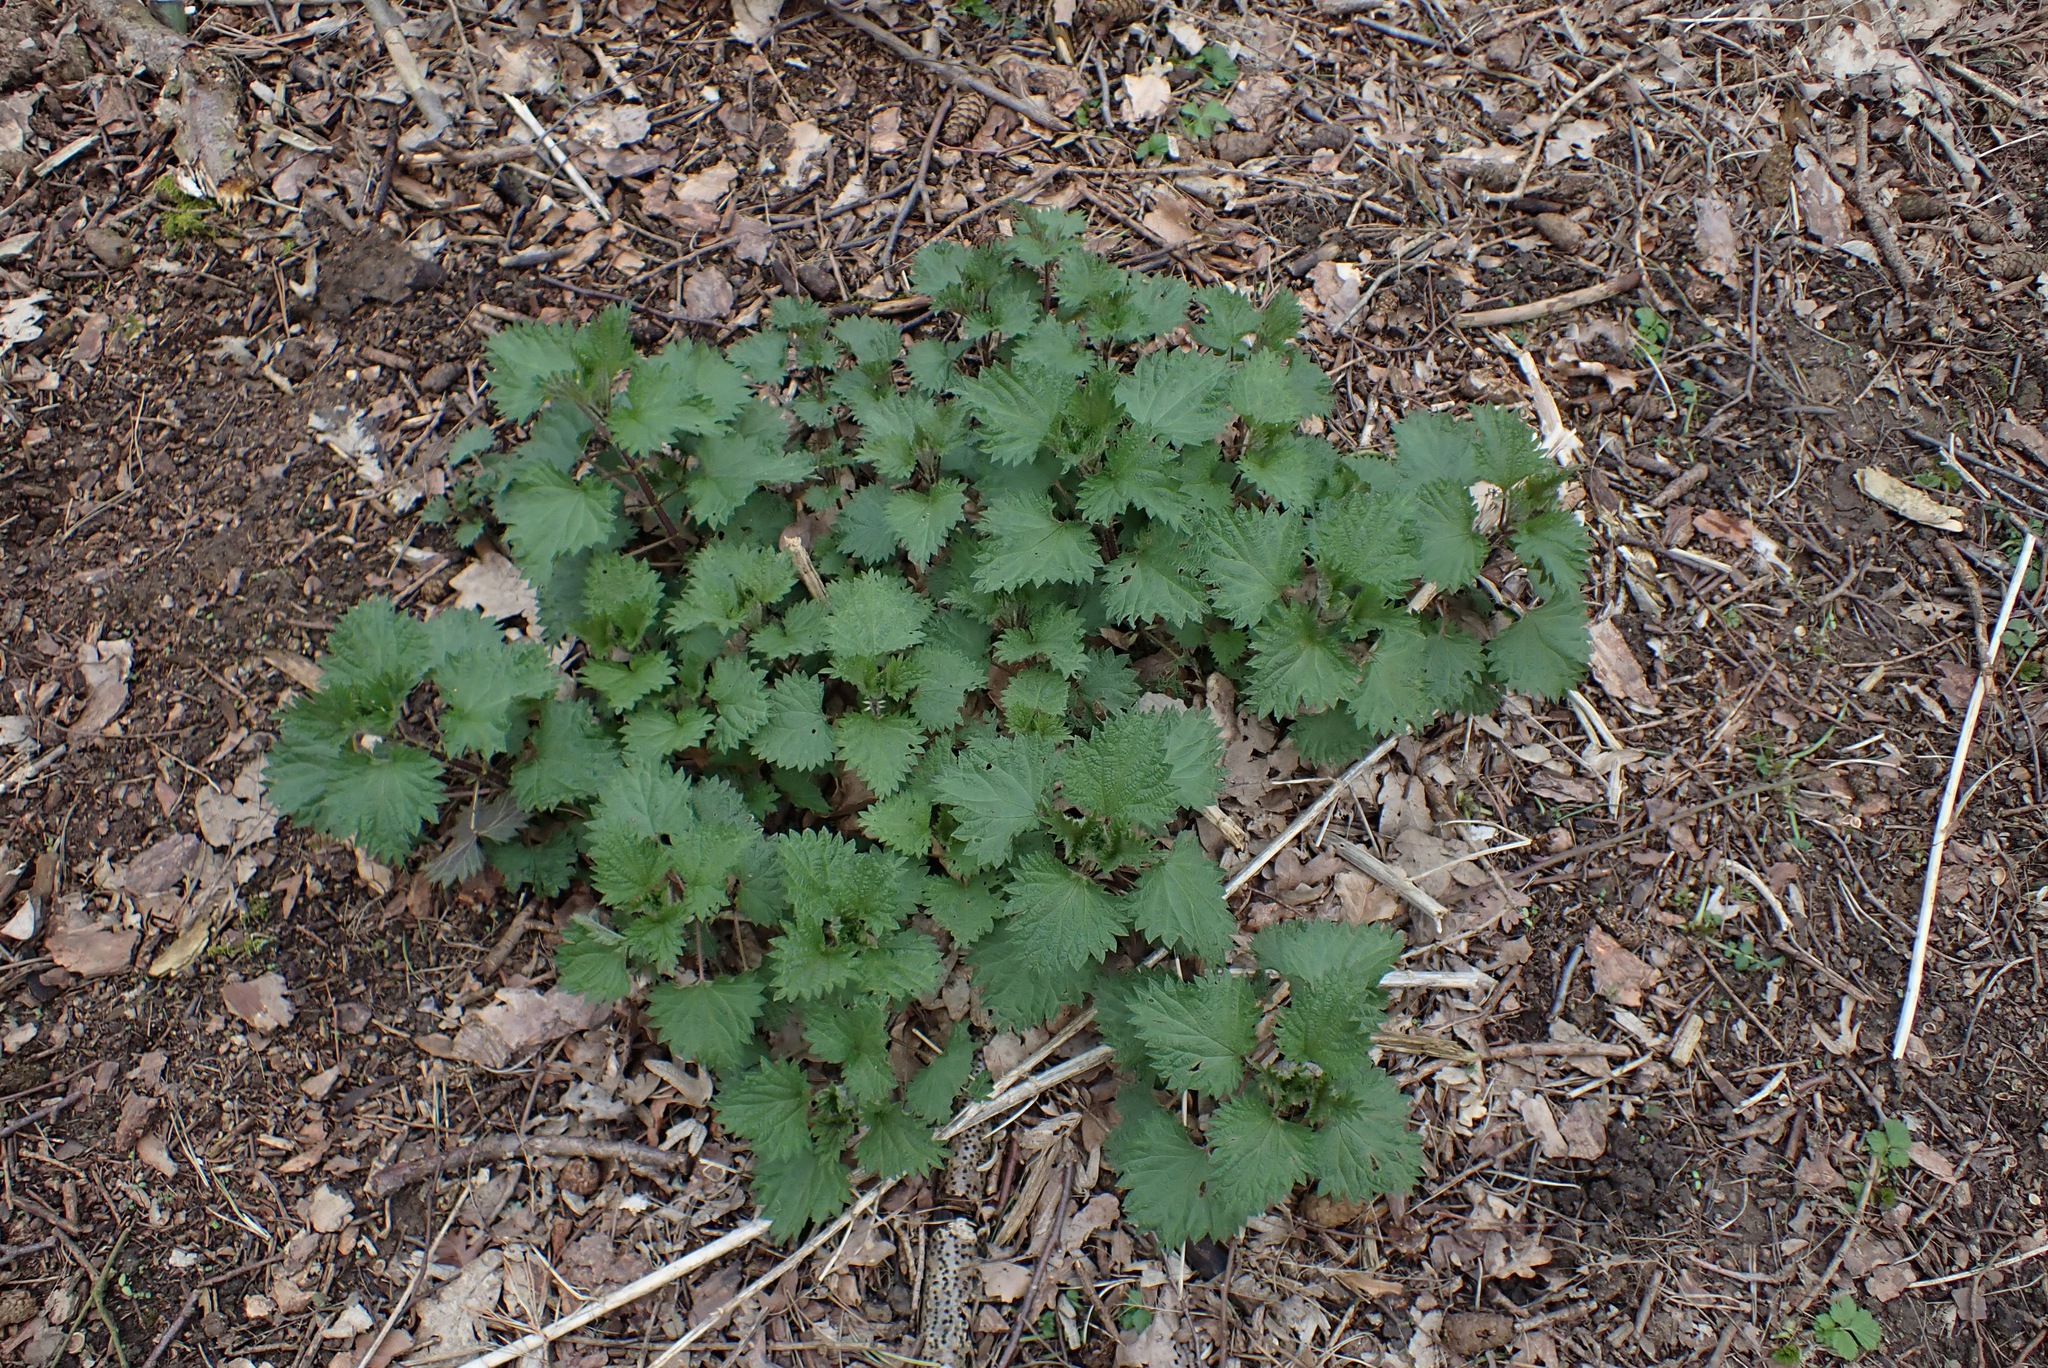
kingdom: Plantae
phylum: Tracheophyta
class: Magnoliopsida
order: Rosales
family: Urticaceae
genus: Urtica
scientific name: Urtica dioica
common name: Common nettle
